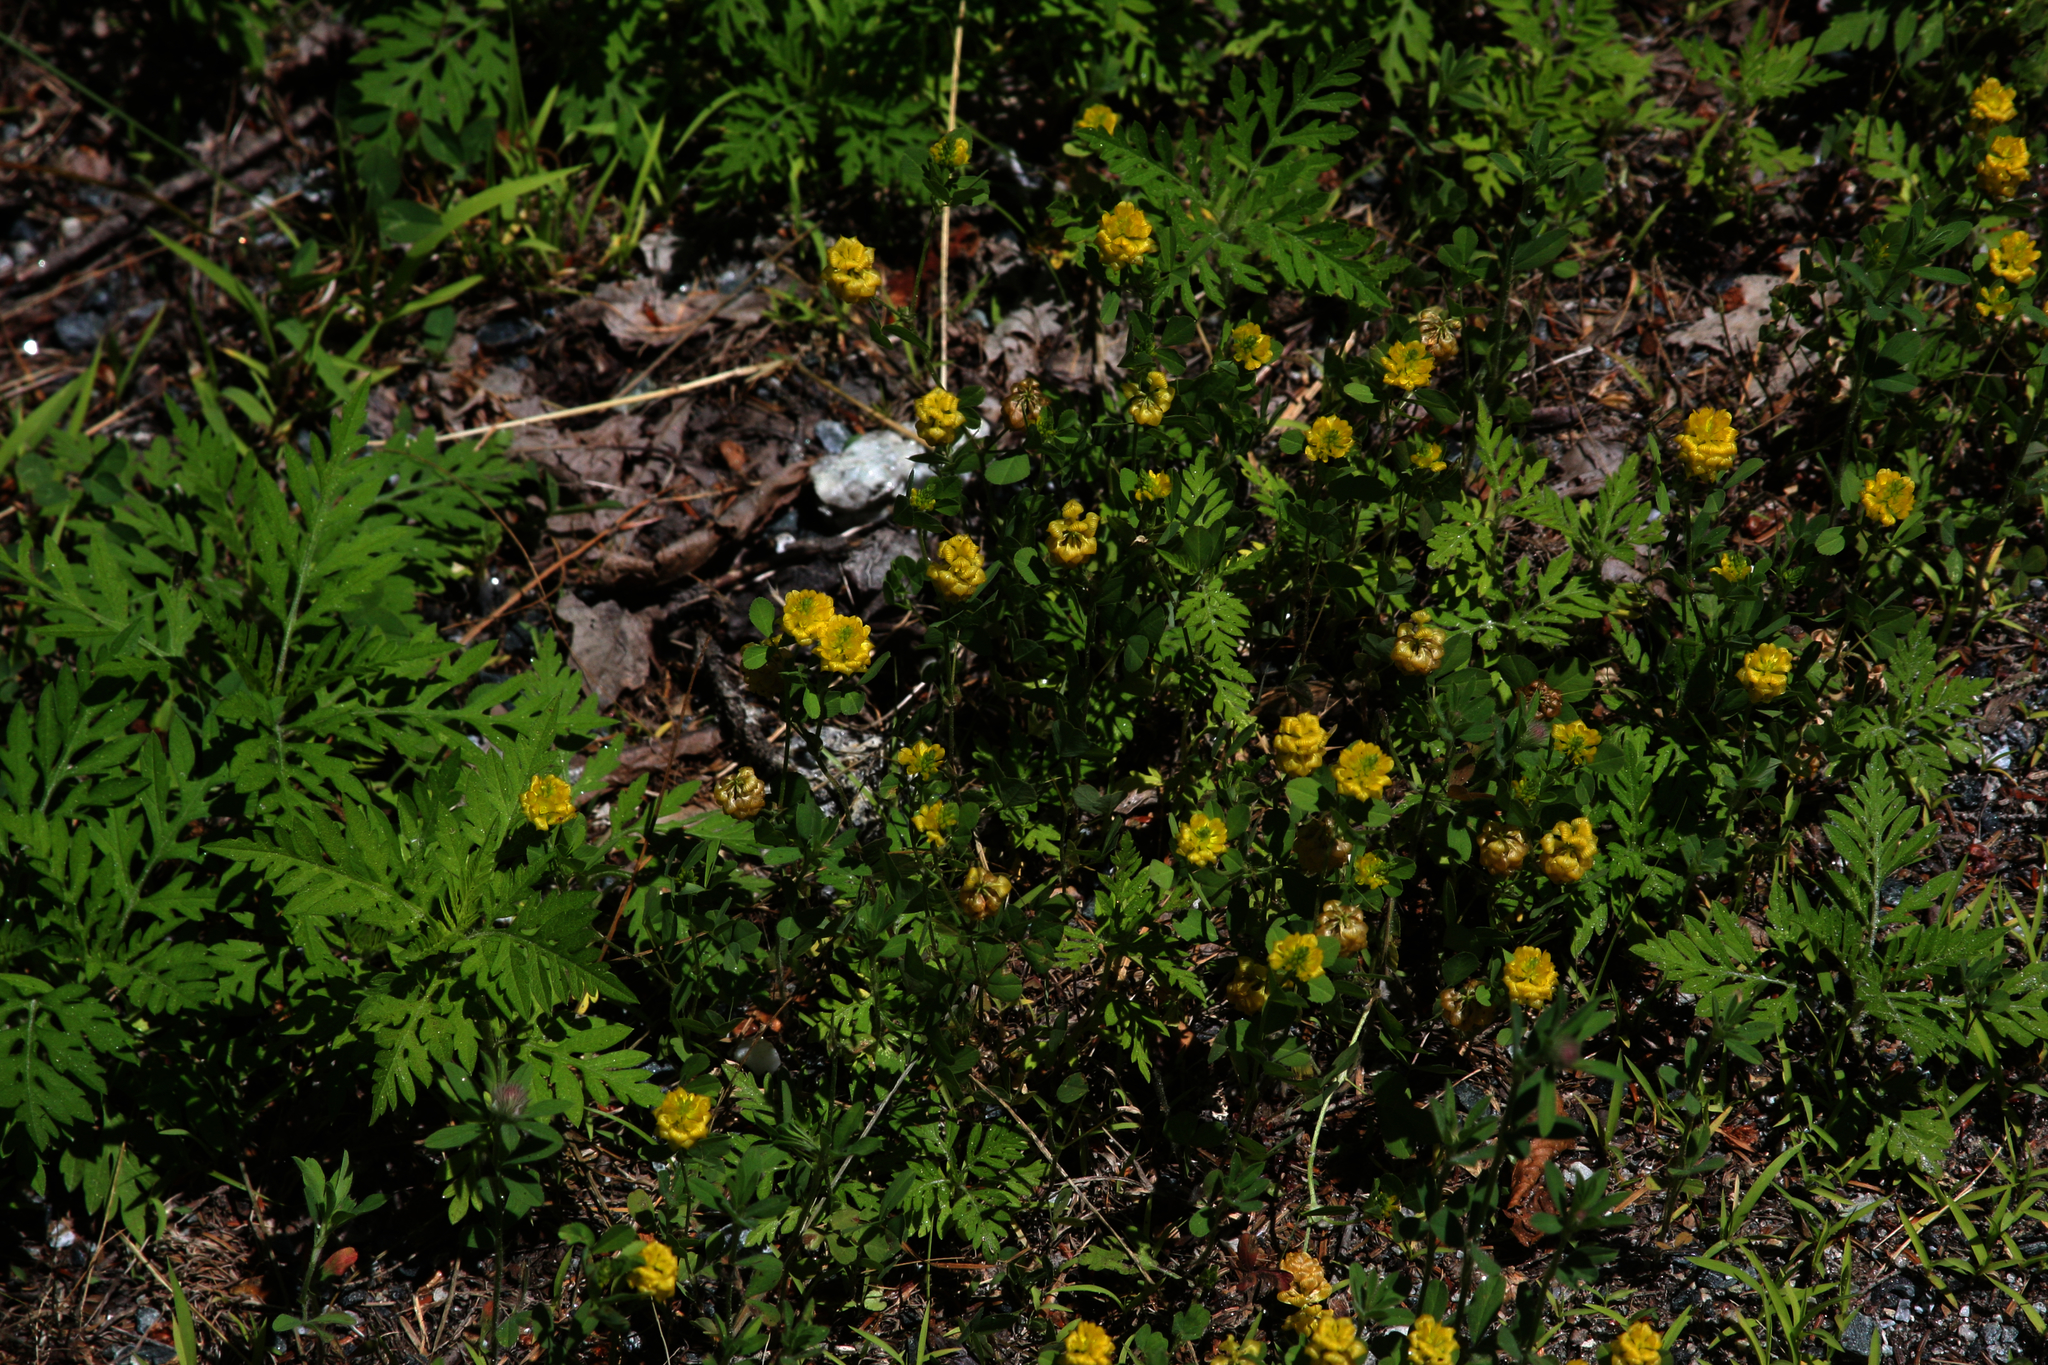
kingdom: Plantae
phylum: Tracheophyta
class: Magnoliopsida
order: Fabales
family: Fabaceae
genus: Trifolium
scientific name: Trifolium campestre
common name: Field clover
